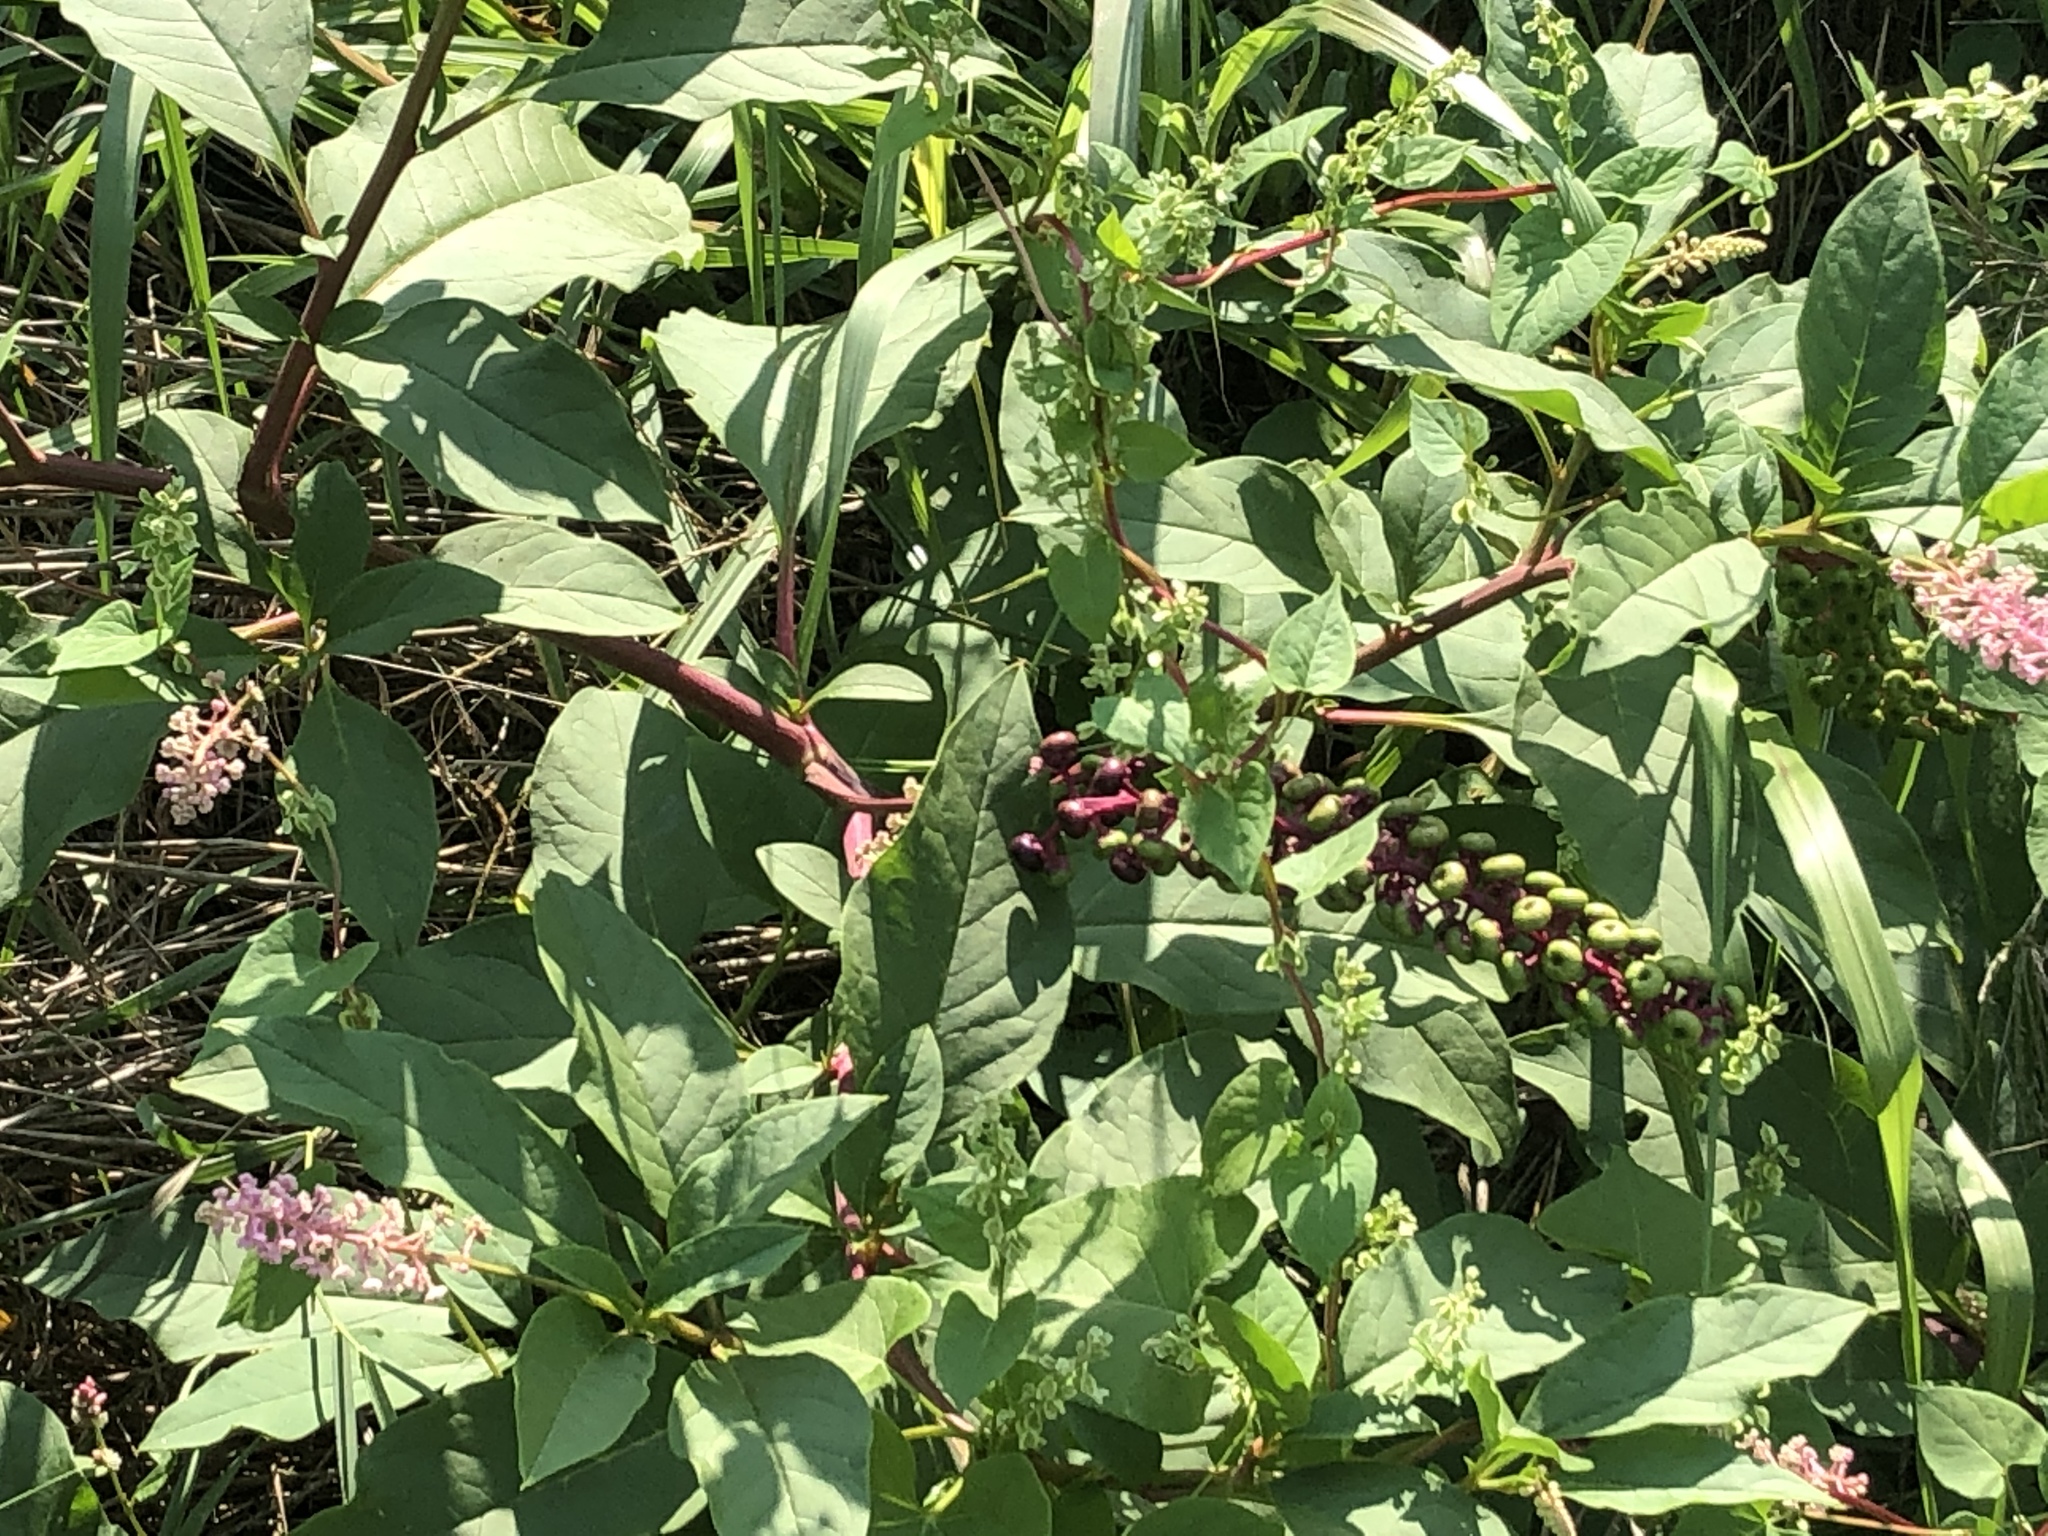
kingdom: Plantae
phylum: Tracheophyta
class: Magnoliopsida
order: Caryophyllales
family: Phytolaccaceae
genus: Phytolacca
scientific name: Phytolacca americana
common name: American pokeweed
